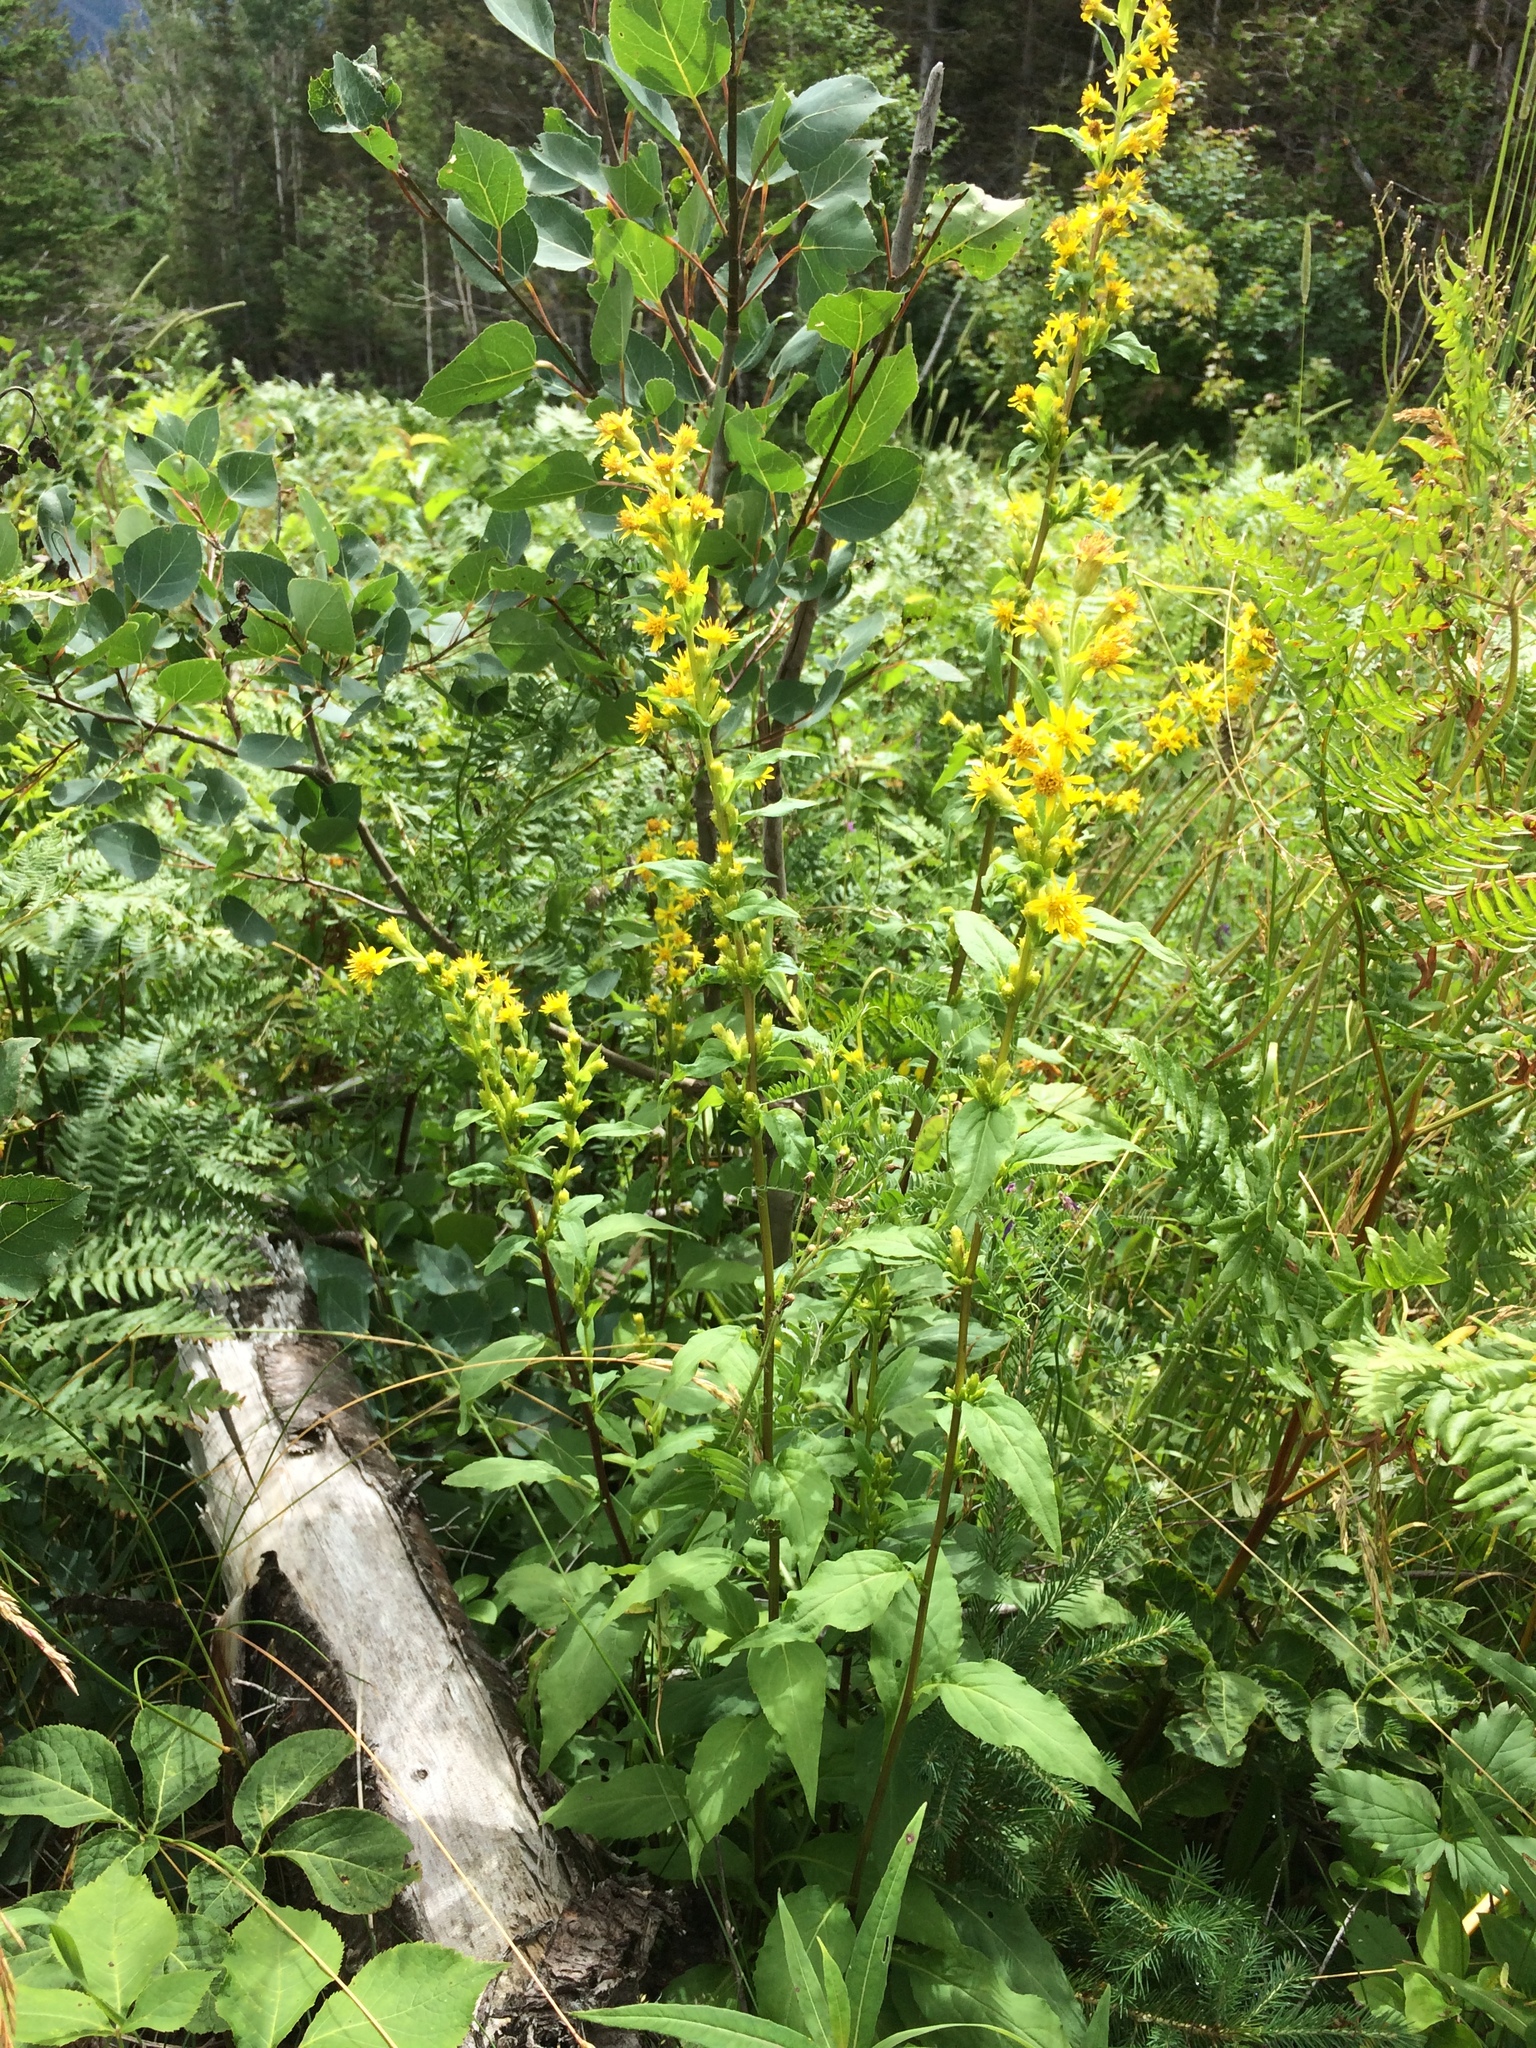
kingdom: Plantae
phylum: Tracheophyta
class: Magnoliopsida
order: Asterales
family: Asteraceae
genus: Solidago
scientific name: Solidago macrophylla
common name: Large-leaved goldenrod
